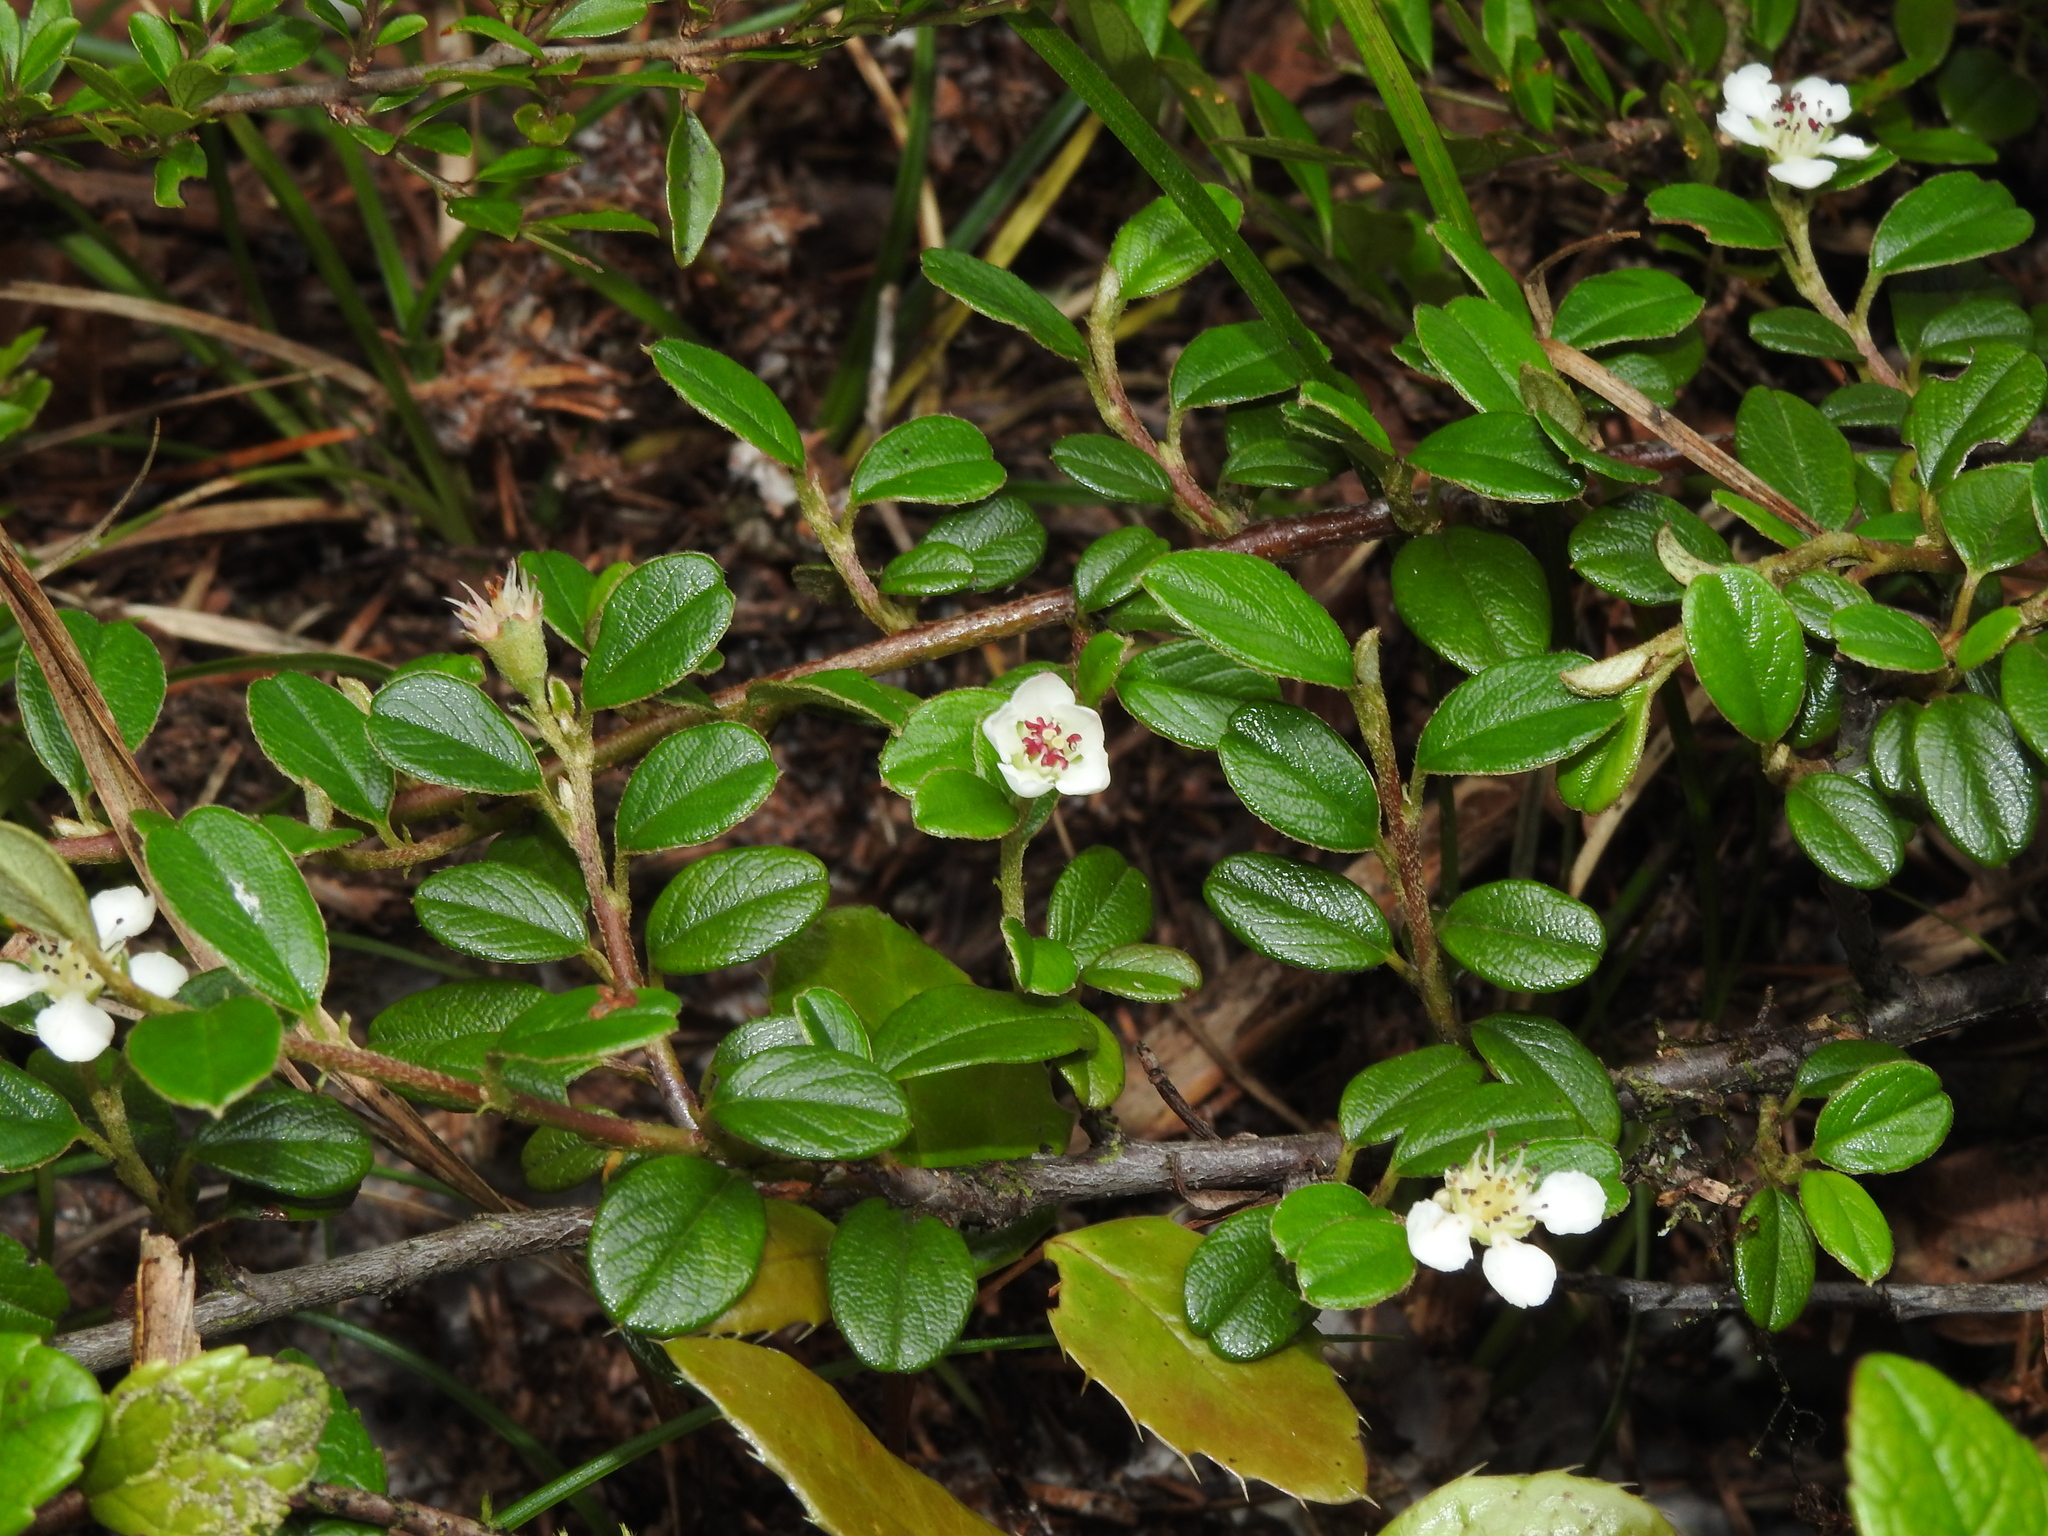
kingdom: Plantae
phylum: Tracheophyta
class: Magnoliopsida
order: Rosales
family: Rosaceae
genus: Cotoneaster
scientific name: Cotoneaster morrisonensis
